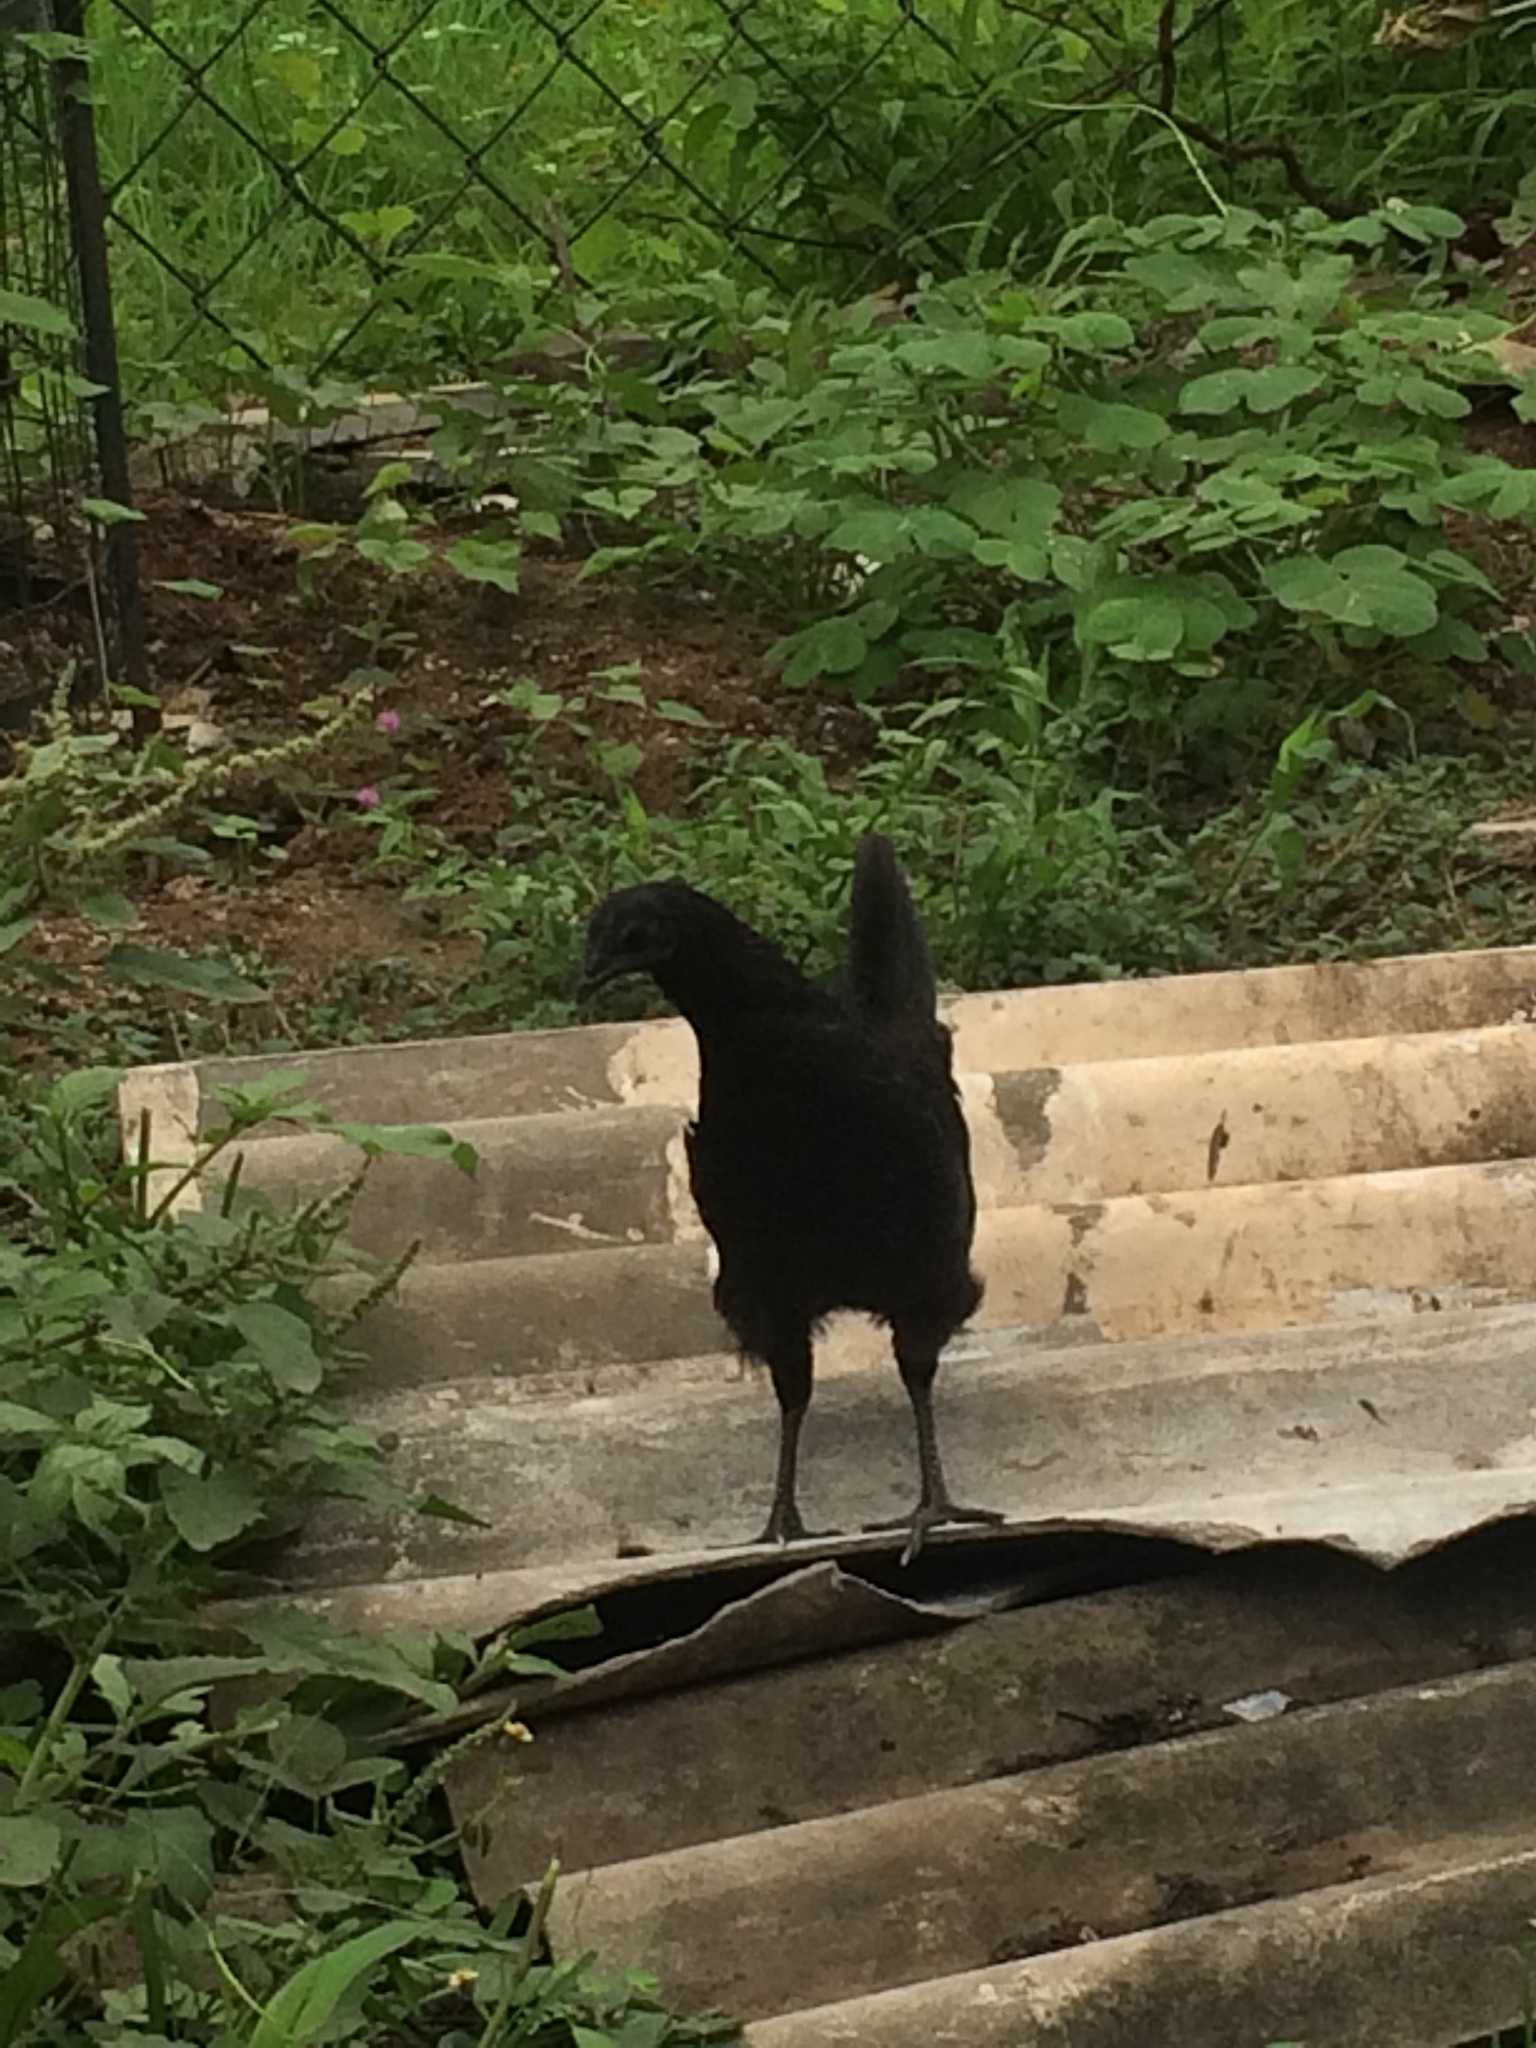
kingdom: Animalia
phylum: Chordata
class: Aves
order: Galliformes
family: Phasianidae
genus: Gallus
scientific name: Gallus gallus
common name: Red junglefowl
